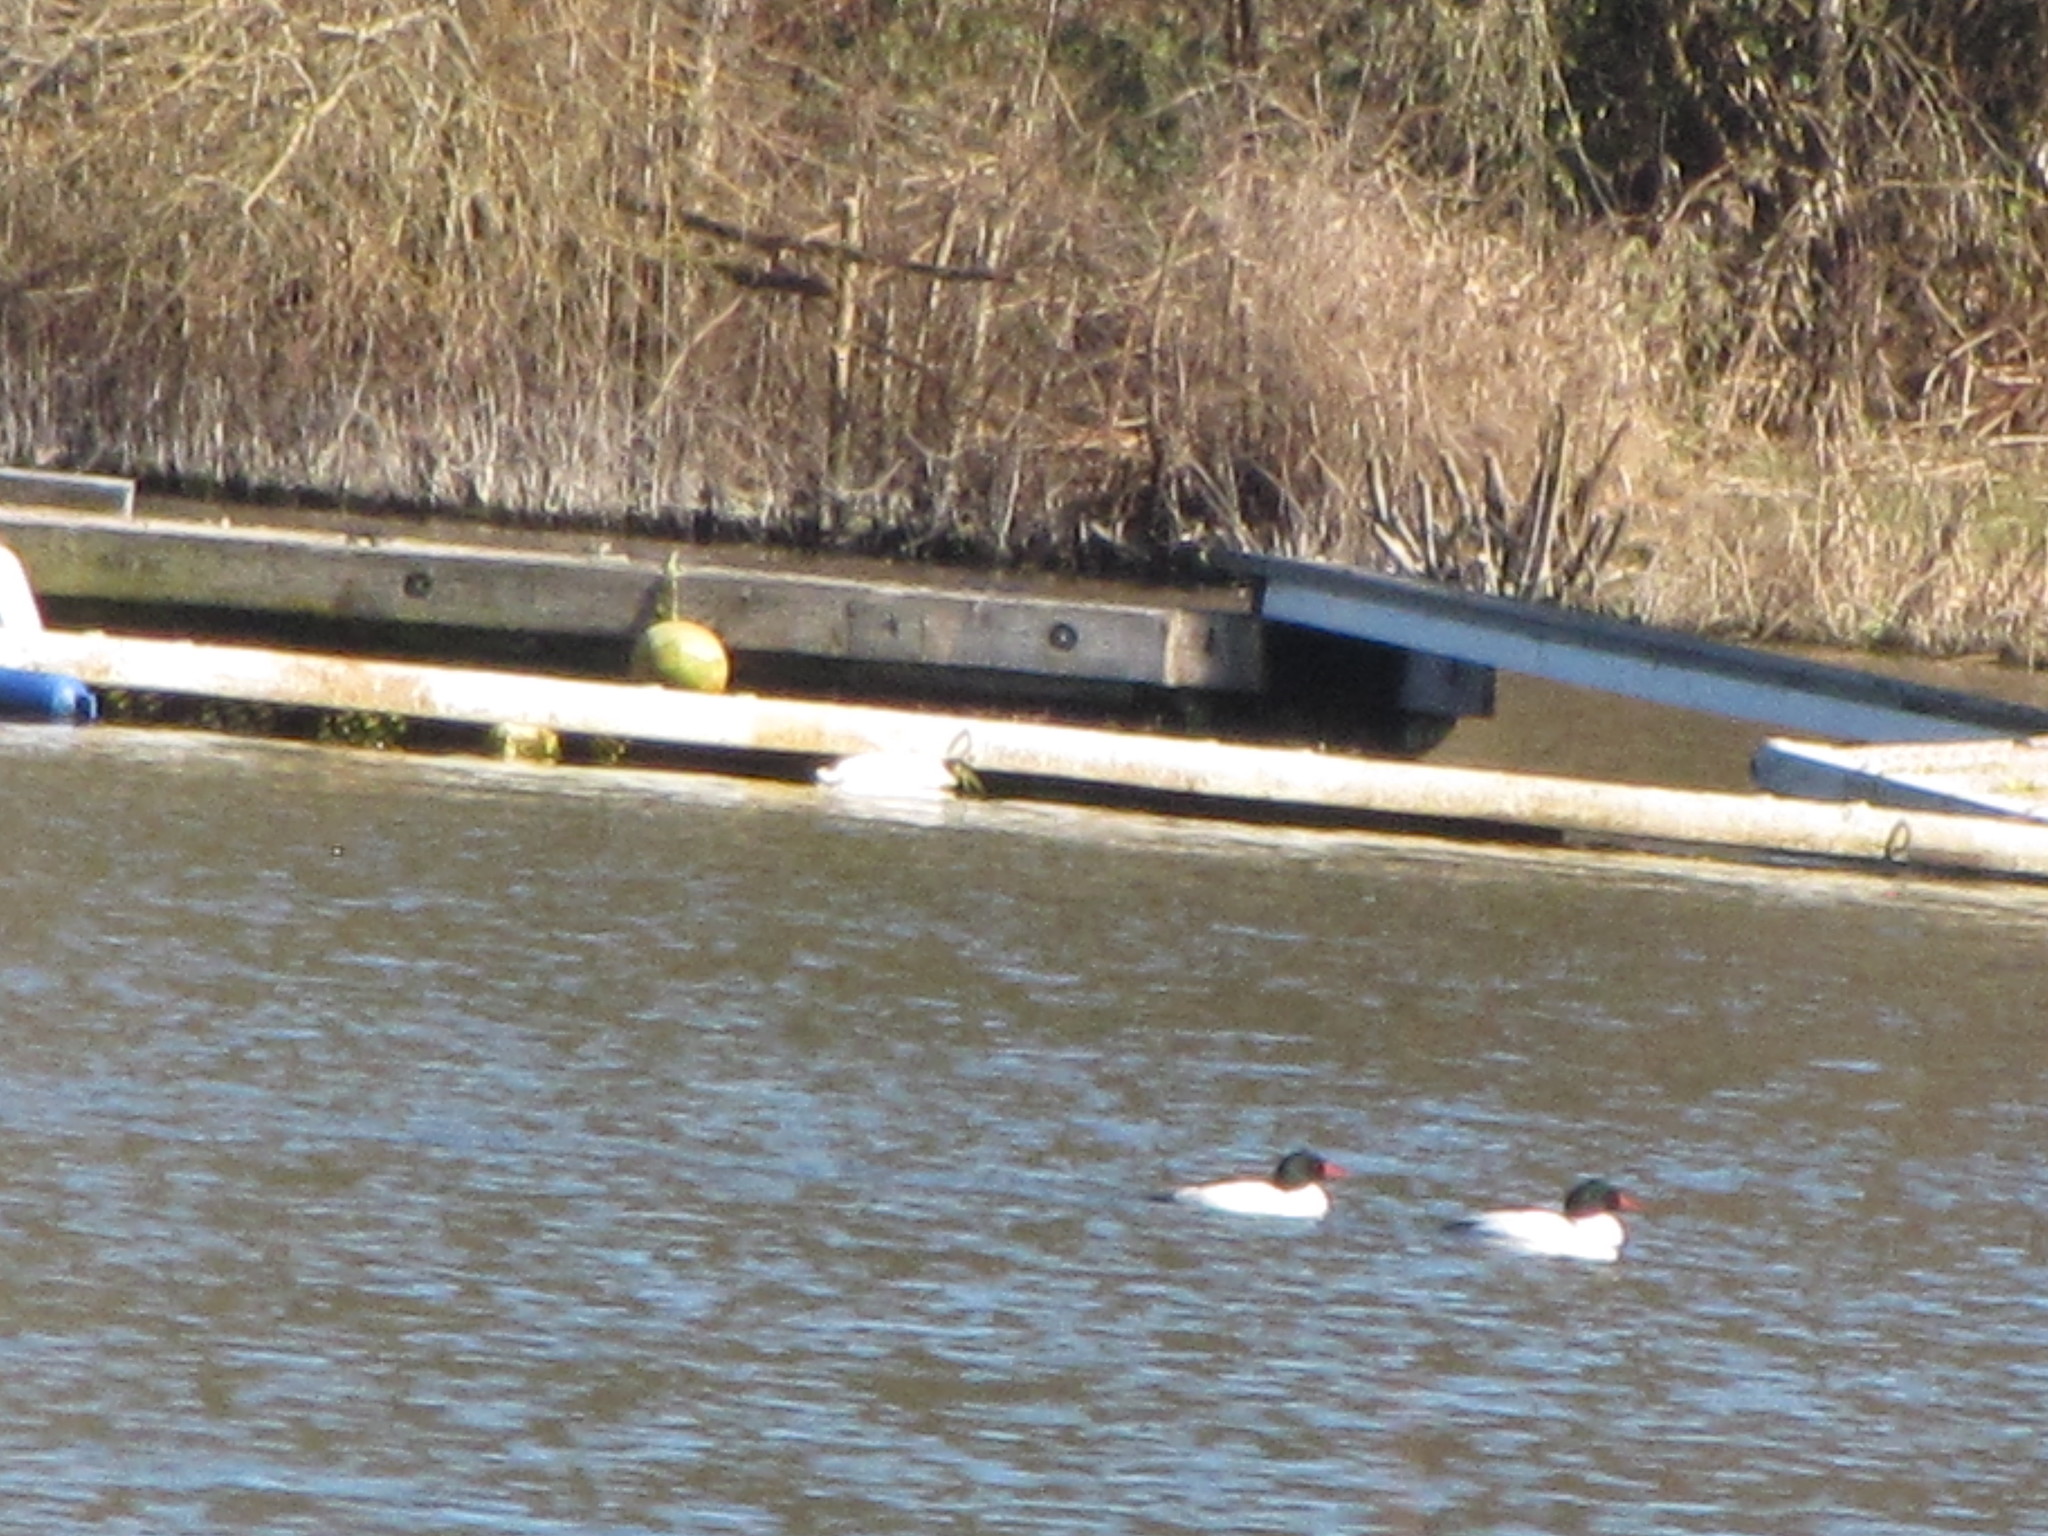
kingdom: Animalia
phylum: Chordata
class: Aves
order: Anseriformes
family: Anatidae
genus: Mergus
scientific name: Mergus merganser
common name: Common merganser
